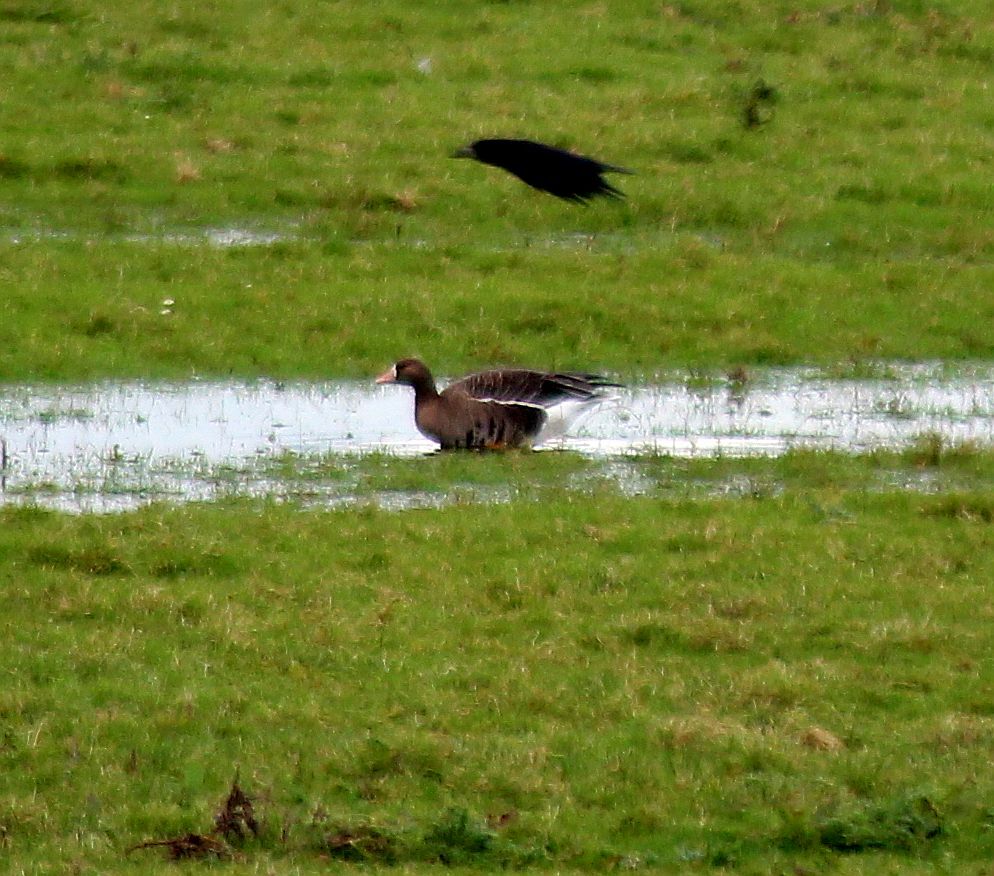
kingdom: Animalia
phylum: Chordata
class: Aves
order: Anseriformes
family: Anatidae
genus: Anser
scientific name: Anser albifrons
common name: Greater white-fronted goose
